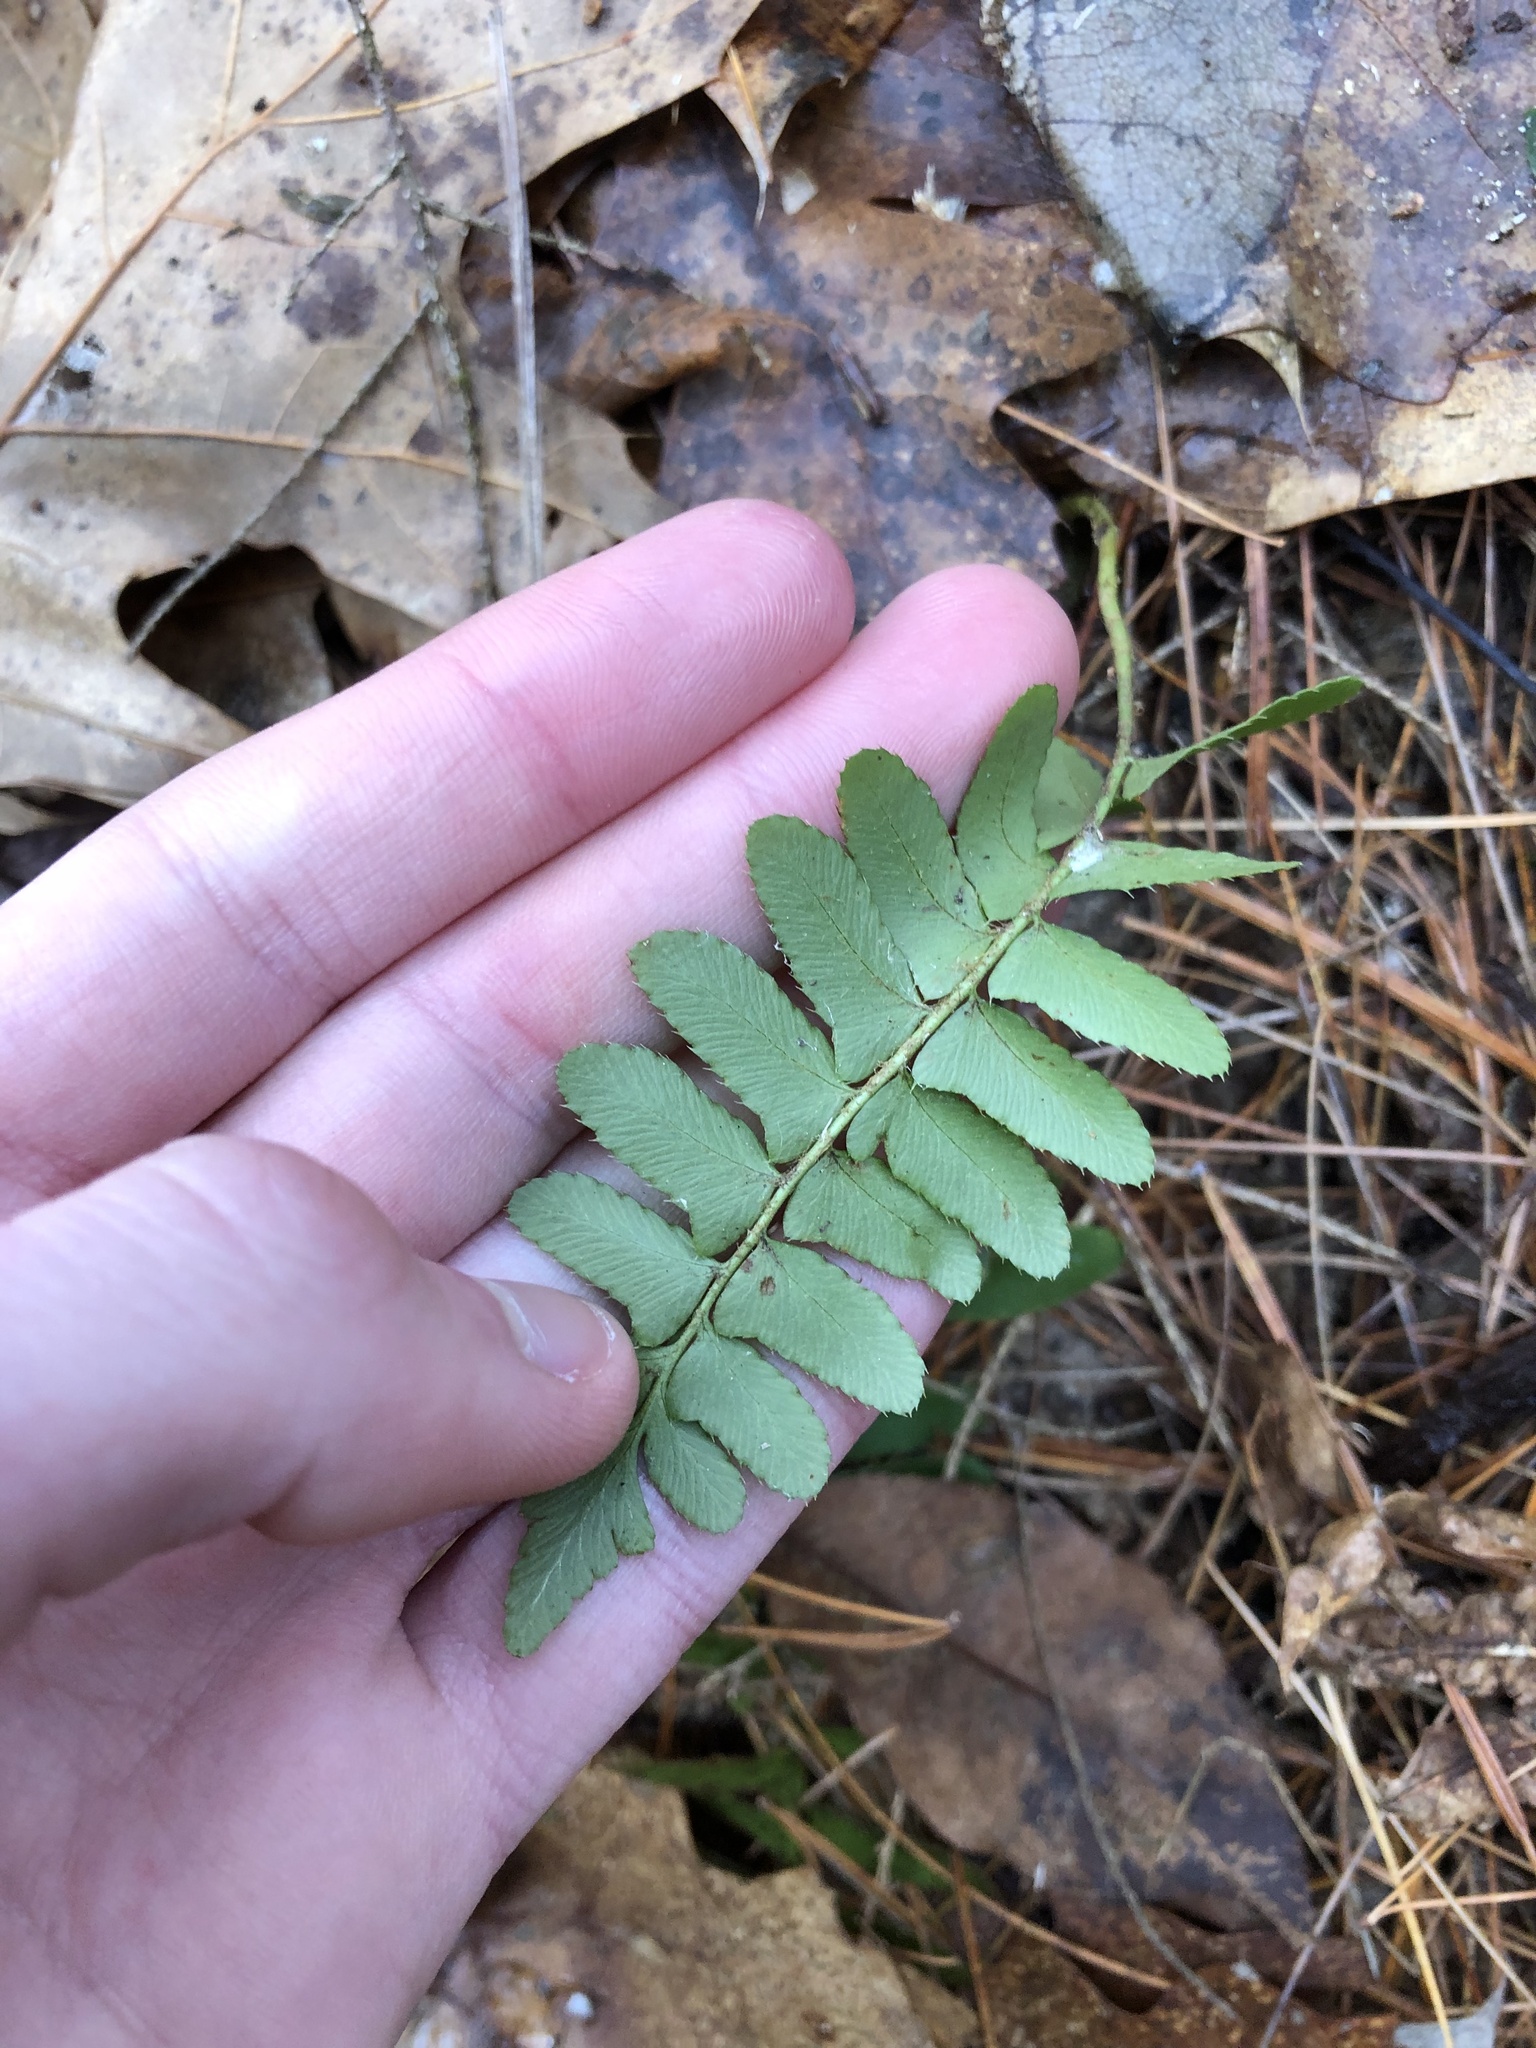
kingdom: Plantae
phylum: Tracheophyta
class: Polypodiopsida
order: Polypodiales
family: Dryopteridaceae
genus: Polystichum
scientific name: Polystichum acrostichoides
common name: Christmas fern
